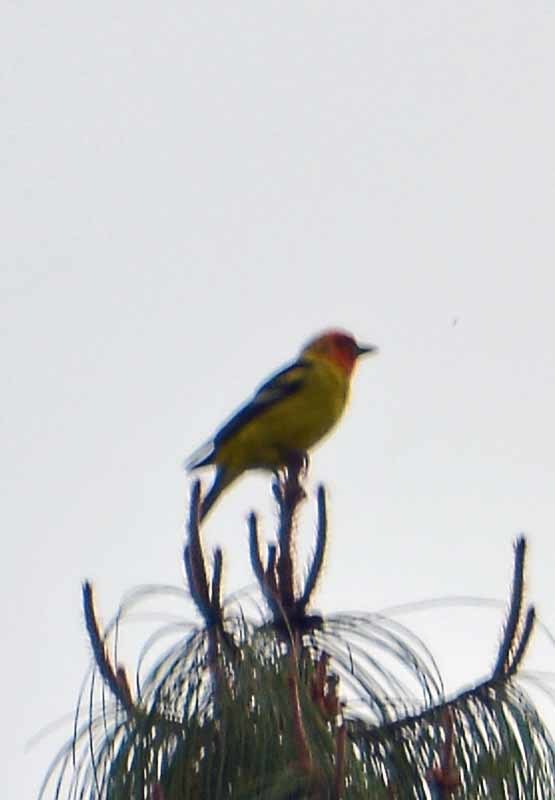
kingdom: Animalia
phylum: Chordata
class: Aves
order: Passeriformes
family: Cardinalidae
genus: Piranga
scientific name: Piranga ludoviciana
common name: Western tanager
